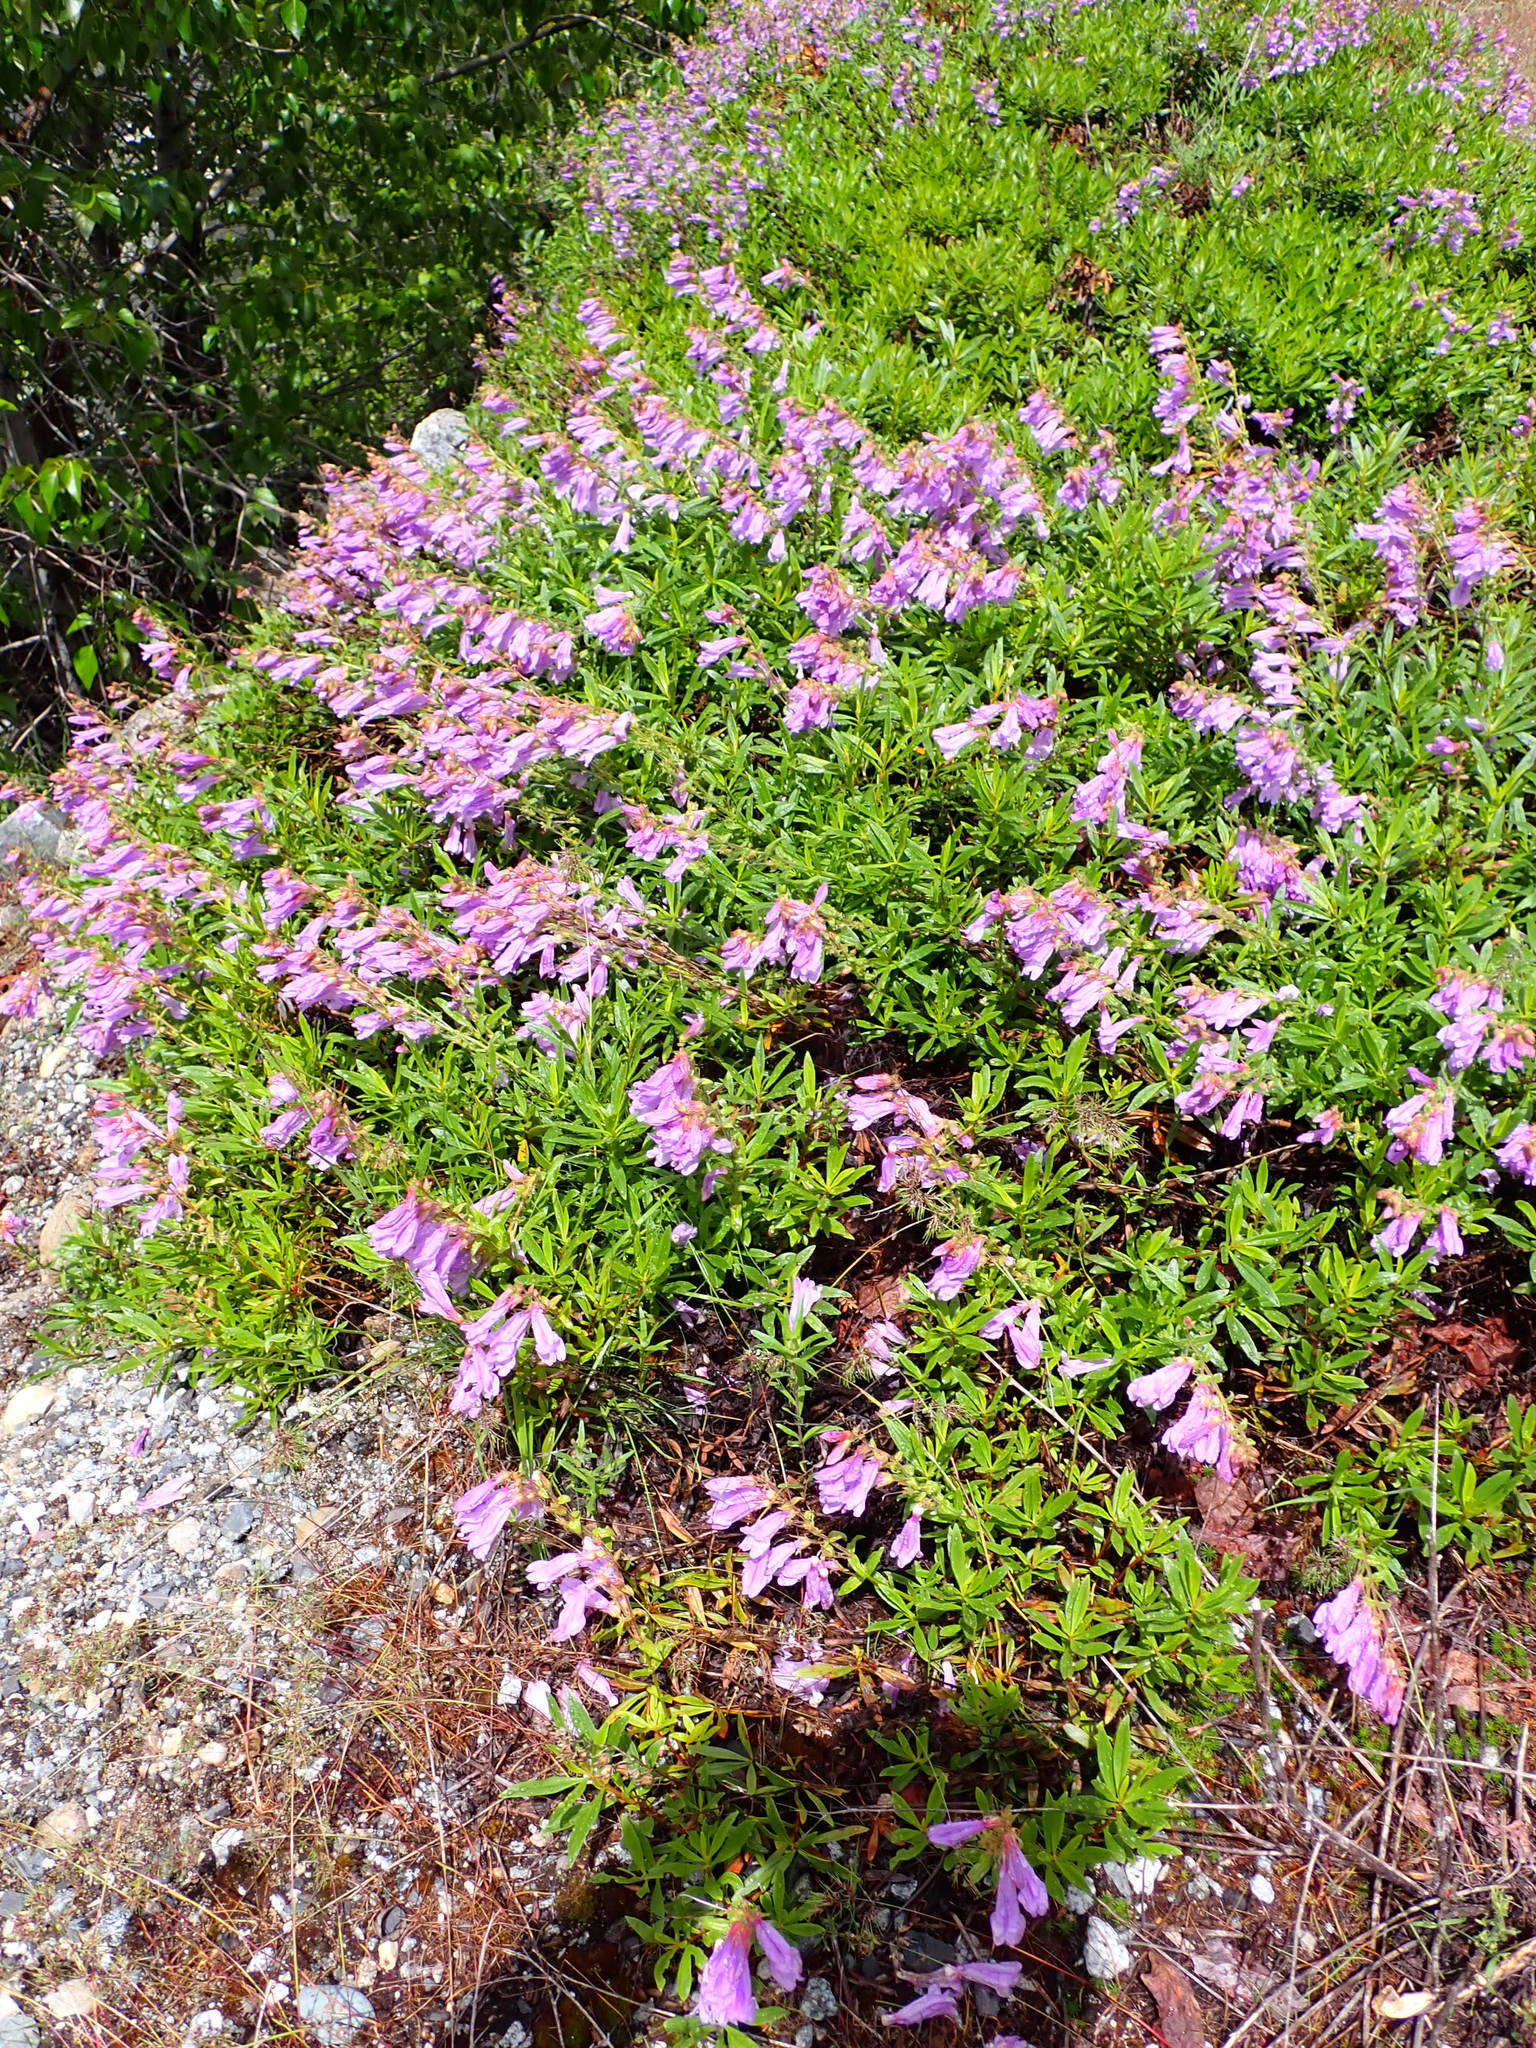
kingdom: Plantae
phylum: Tracheophyta
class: Magnoliopsida
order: Lamiales
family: Plantaginaceae
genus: Penstemon
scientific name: Penstemon fruticosus
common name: Bush penstemon
